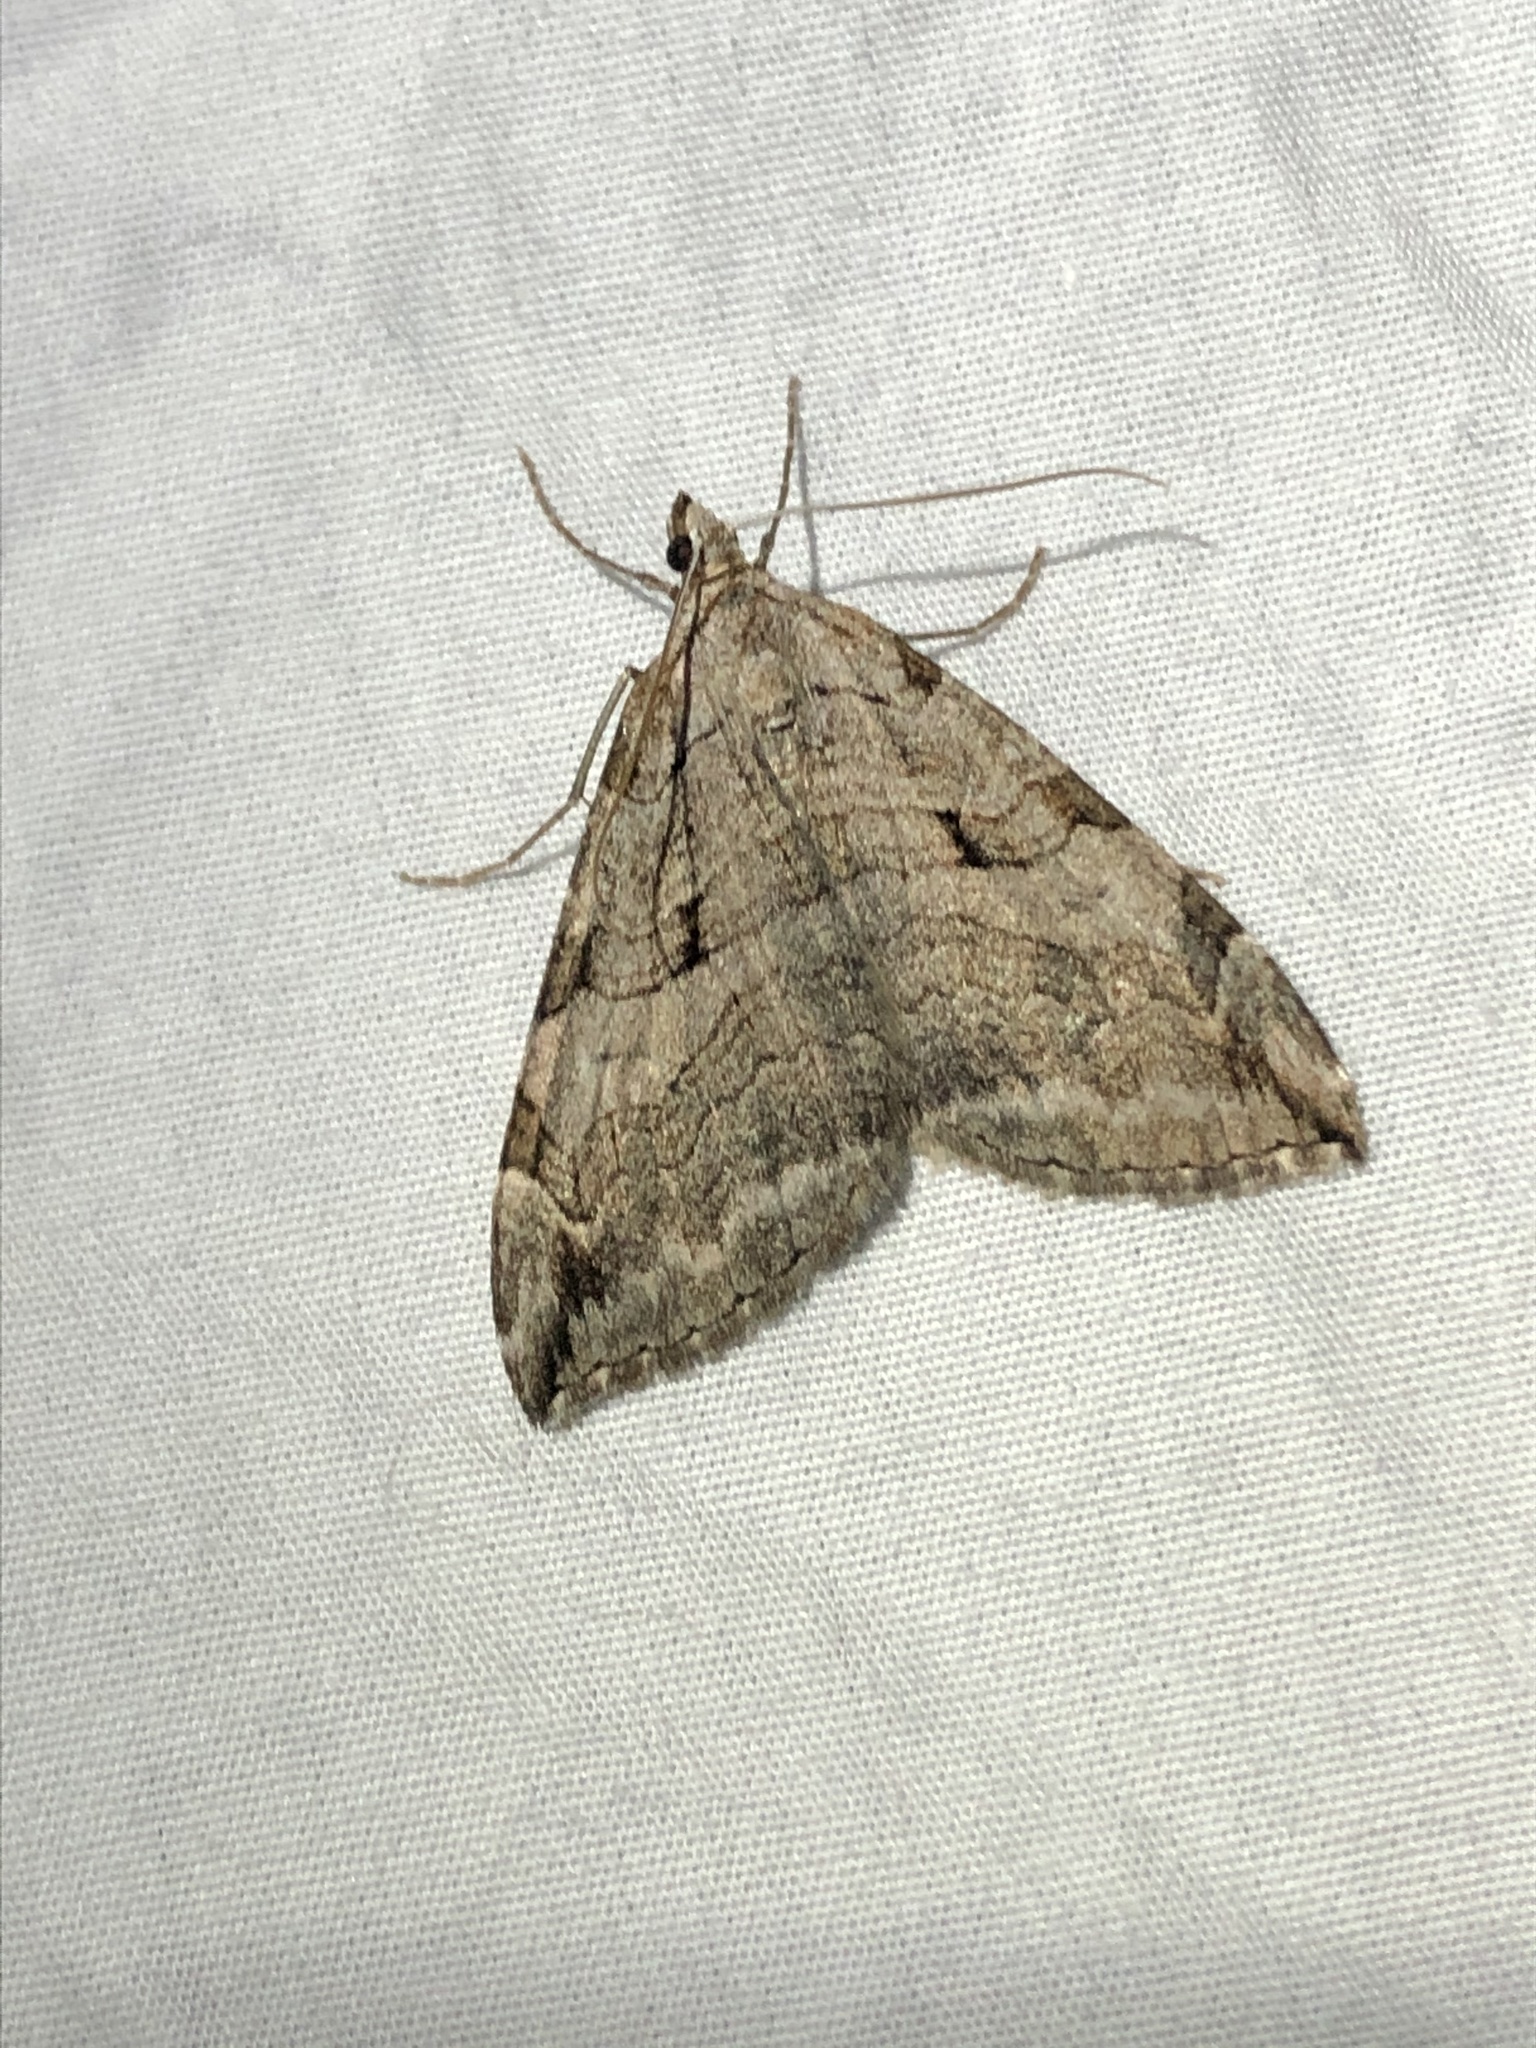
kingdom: Animalia
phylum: Arthropoda
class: Insecta
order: Lepidoptera
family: Geometridae
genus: Aplocera
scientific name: Aplocera plagiata
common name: Treble-bar
